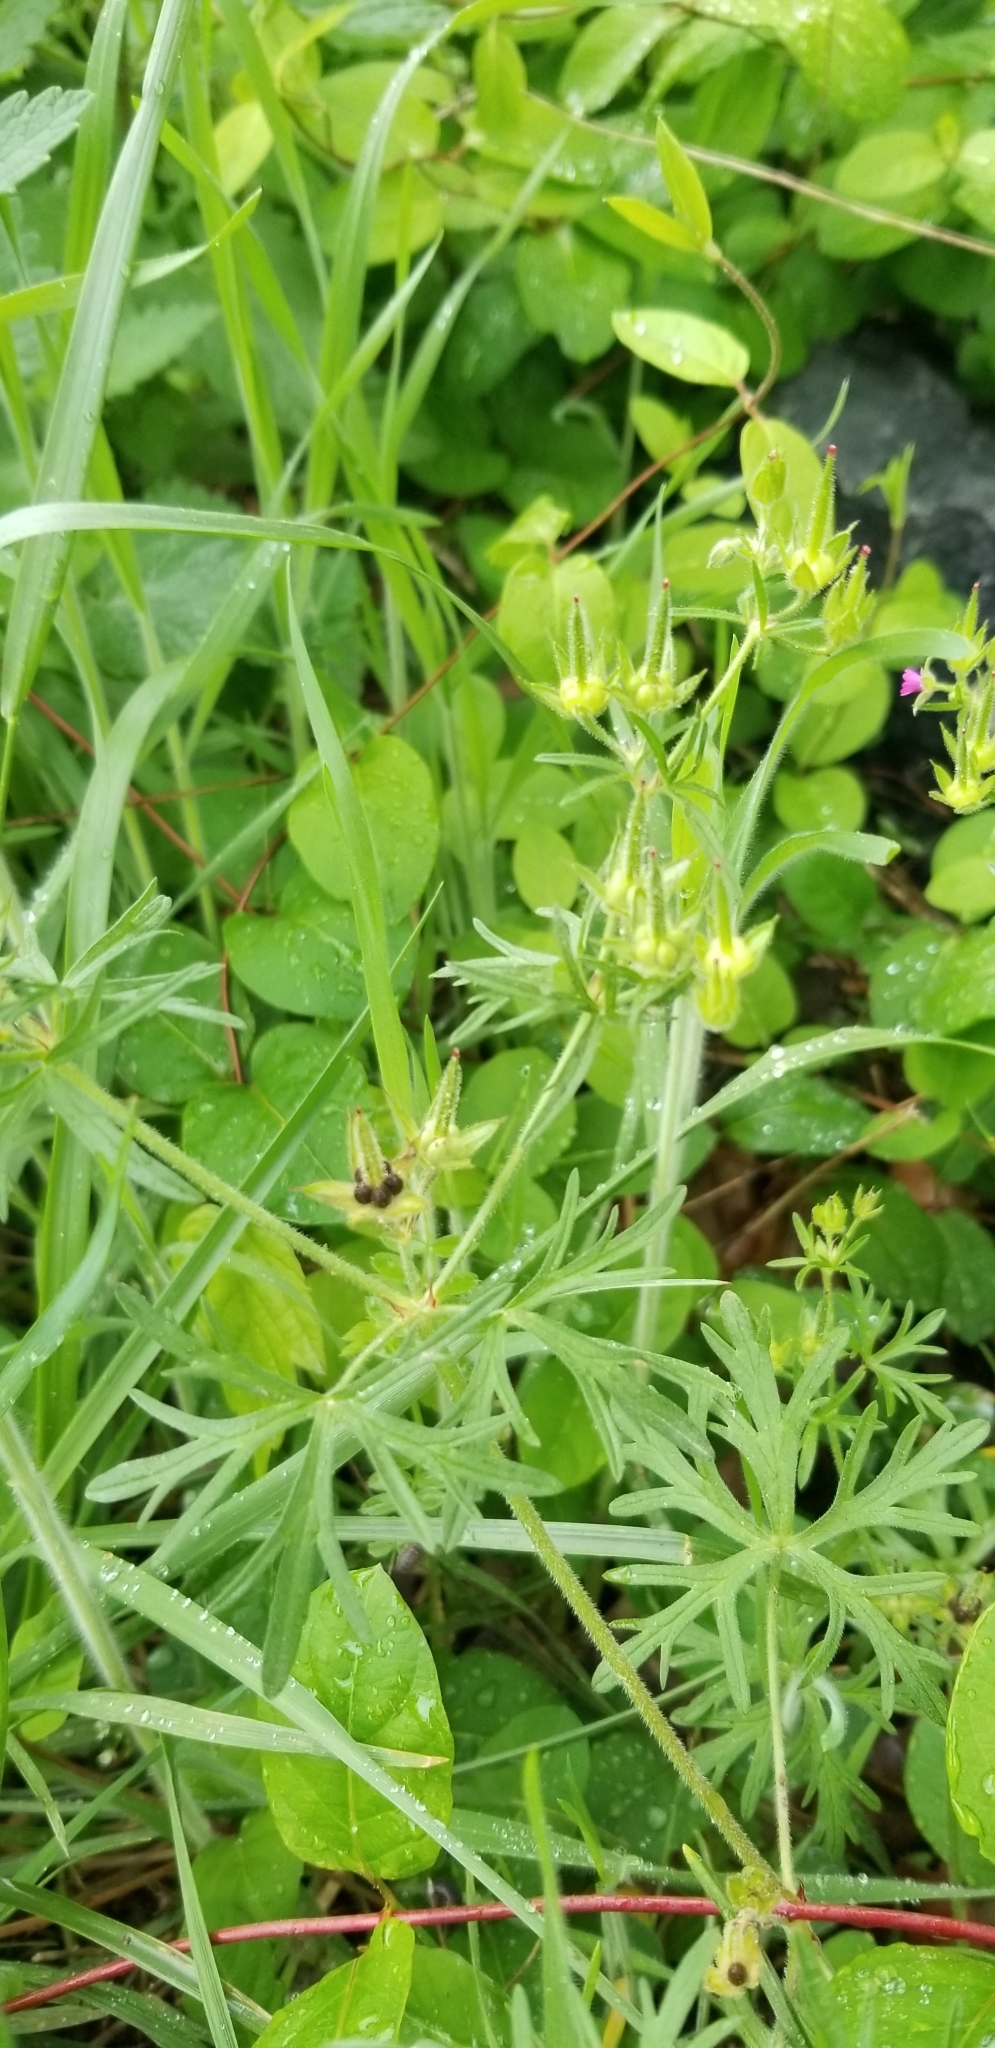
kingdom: Plantae
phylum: Tracheophyta
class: Magnoliopsida
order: Geraniales
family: Geraniaceae
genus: Geranium
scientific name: Geranium dissectum
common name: Cut-leaved crane's-bill
